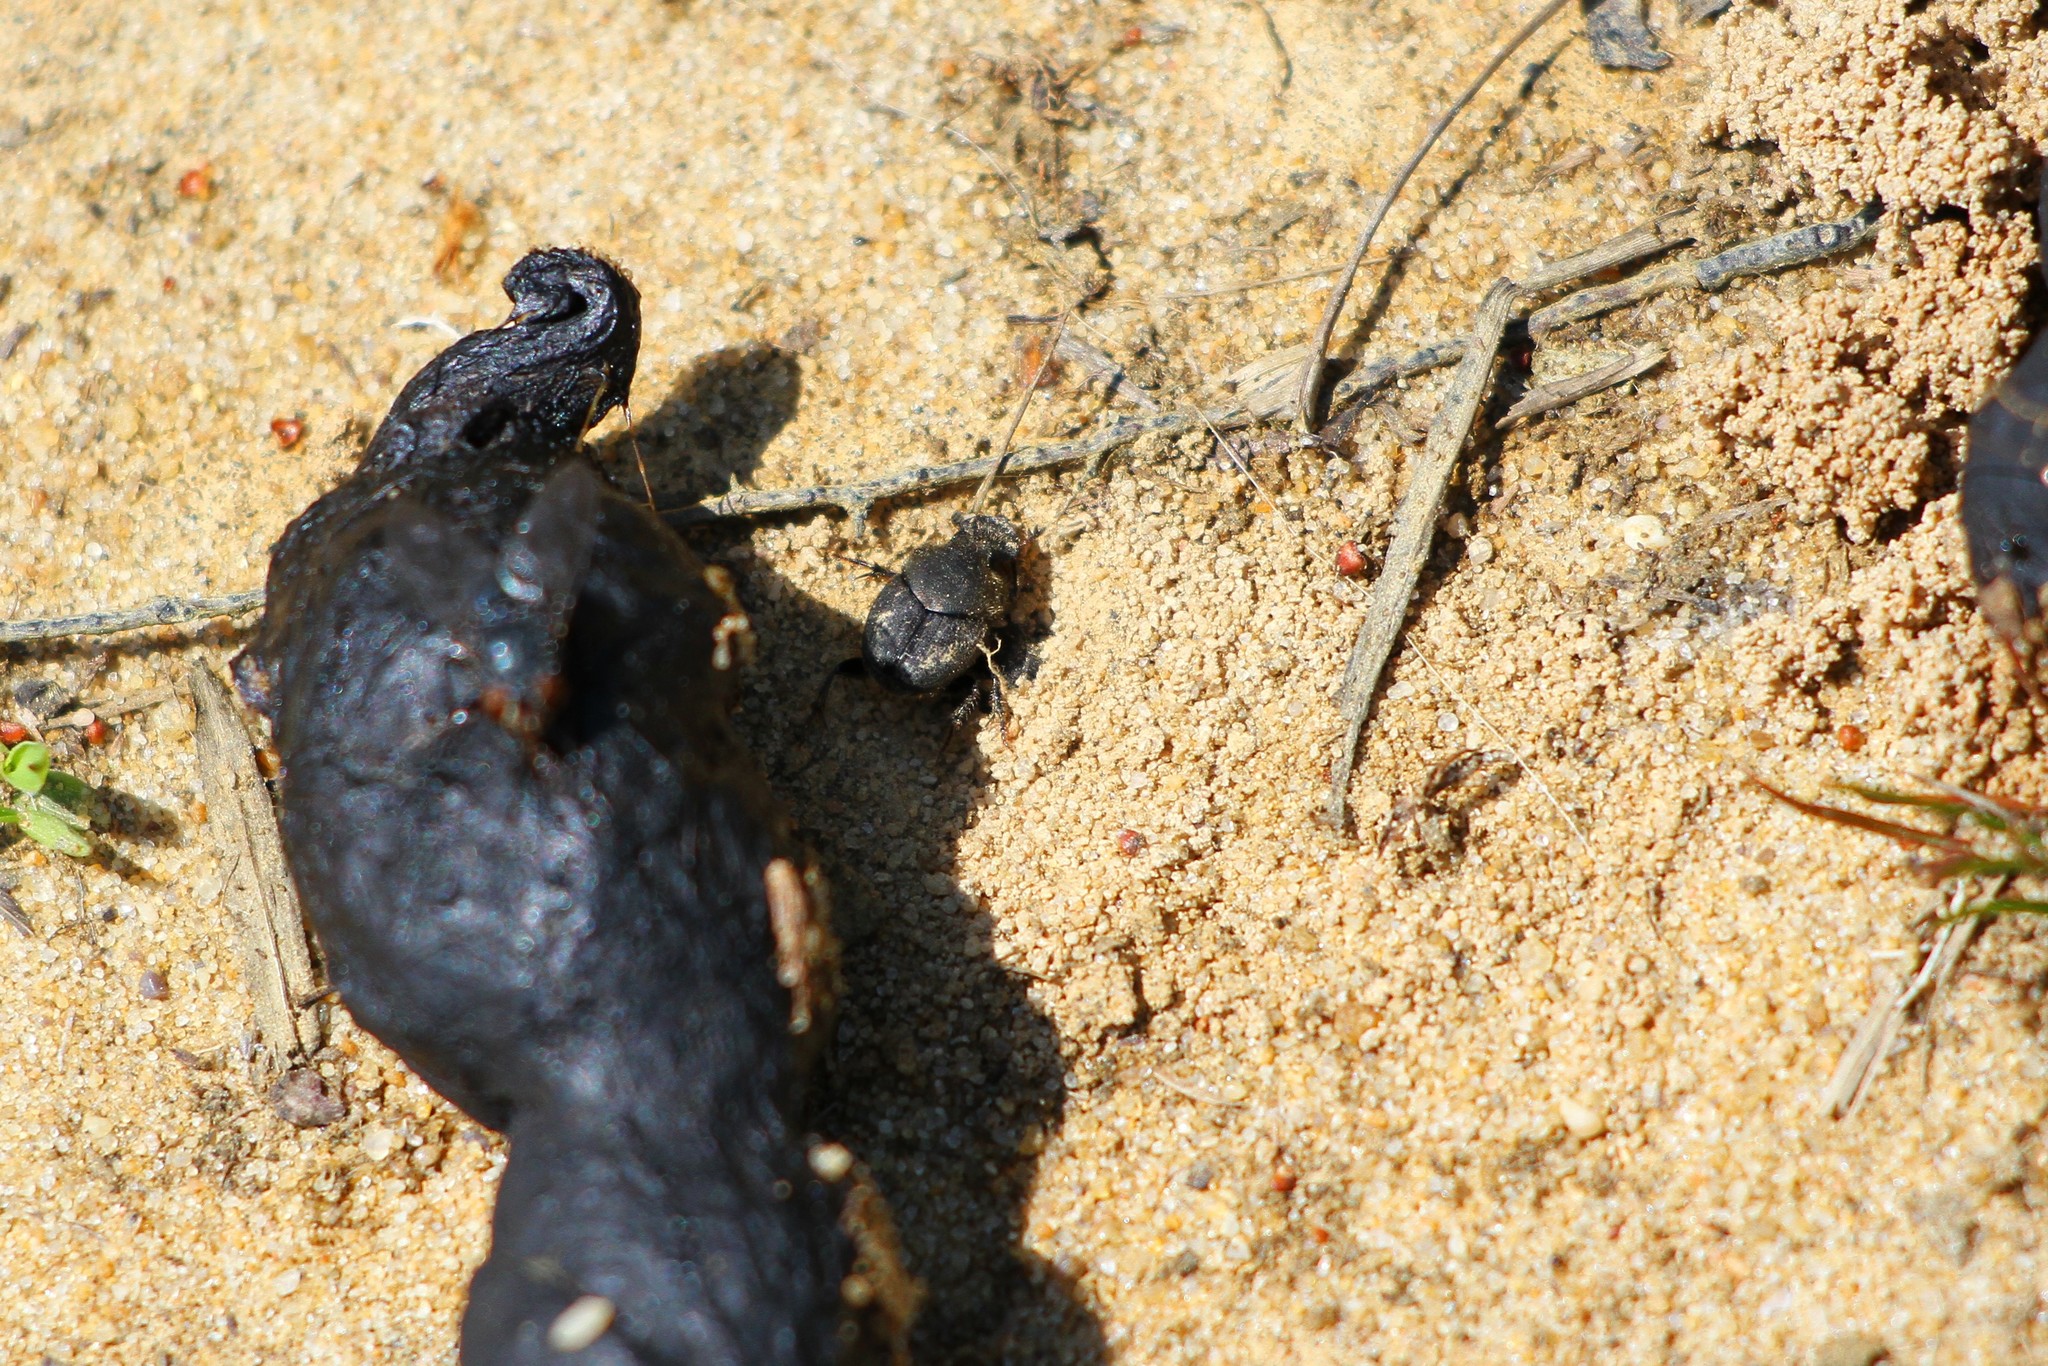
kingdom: Animalia
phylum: Arthropoda
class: Insecta
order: Coleoptera
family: Scarabaeidae
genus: Onthophagus
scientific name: Onthophagus hecate
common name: Scooped scarab
